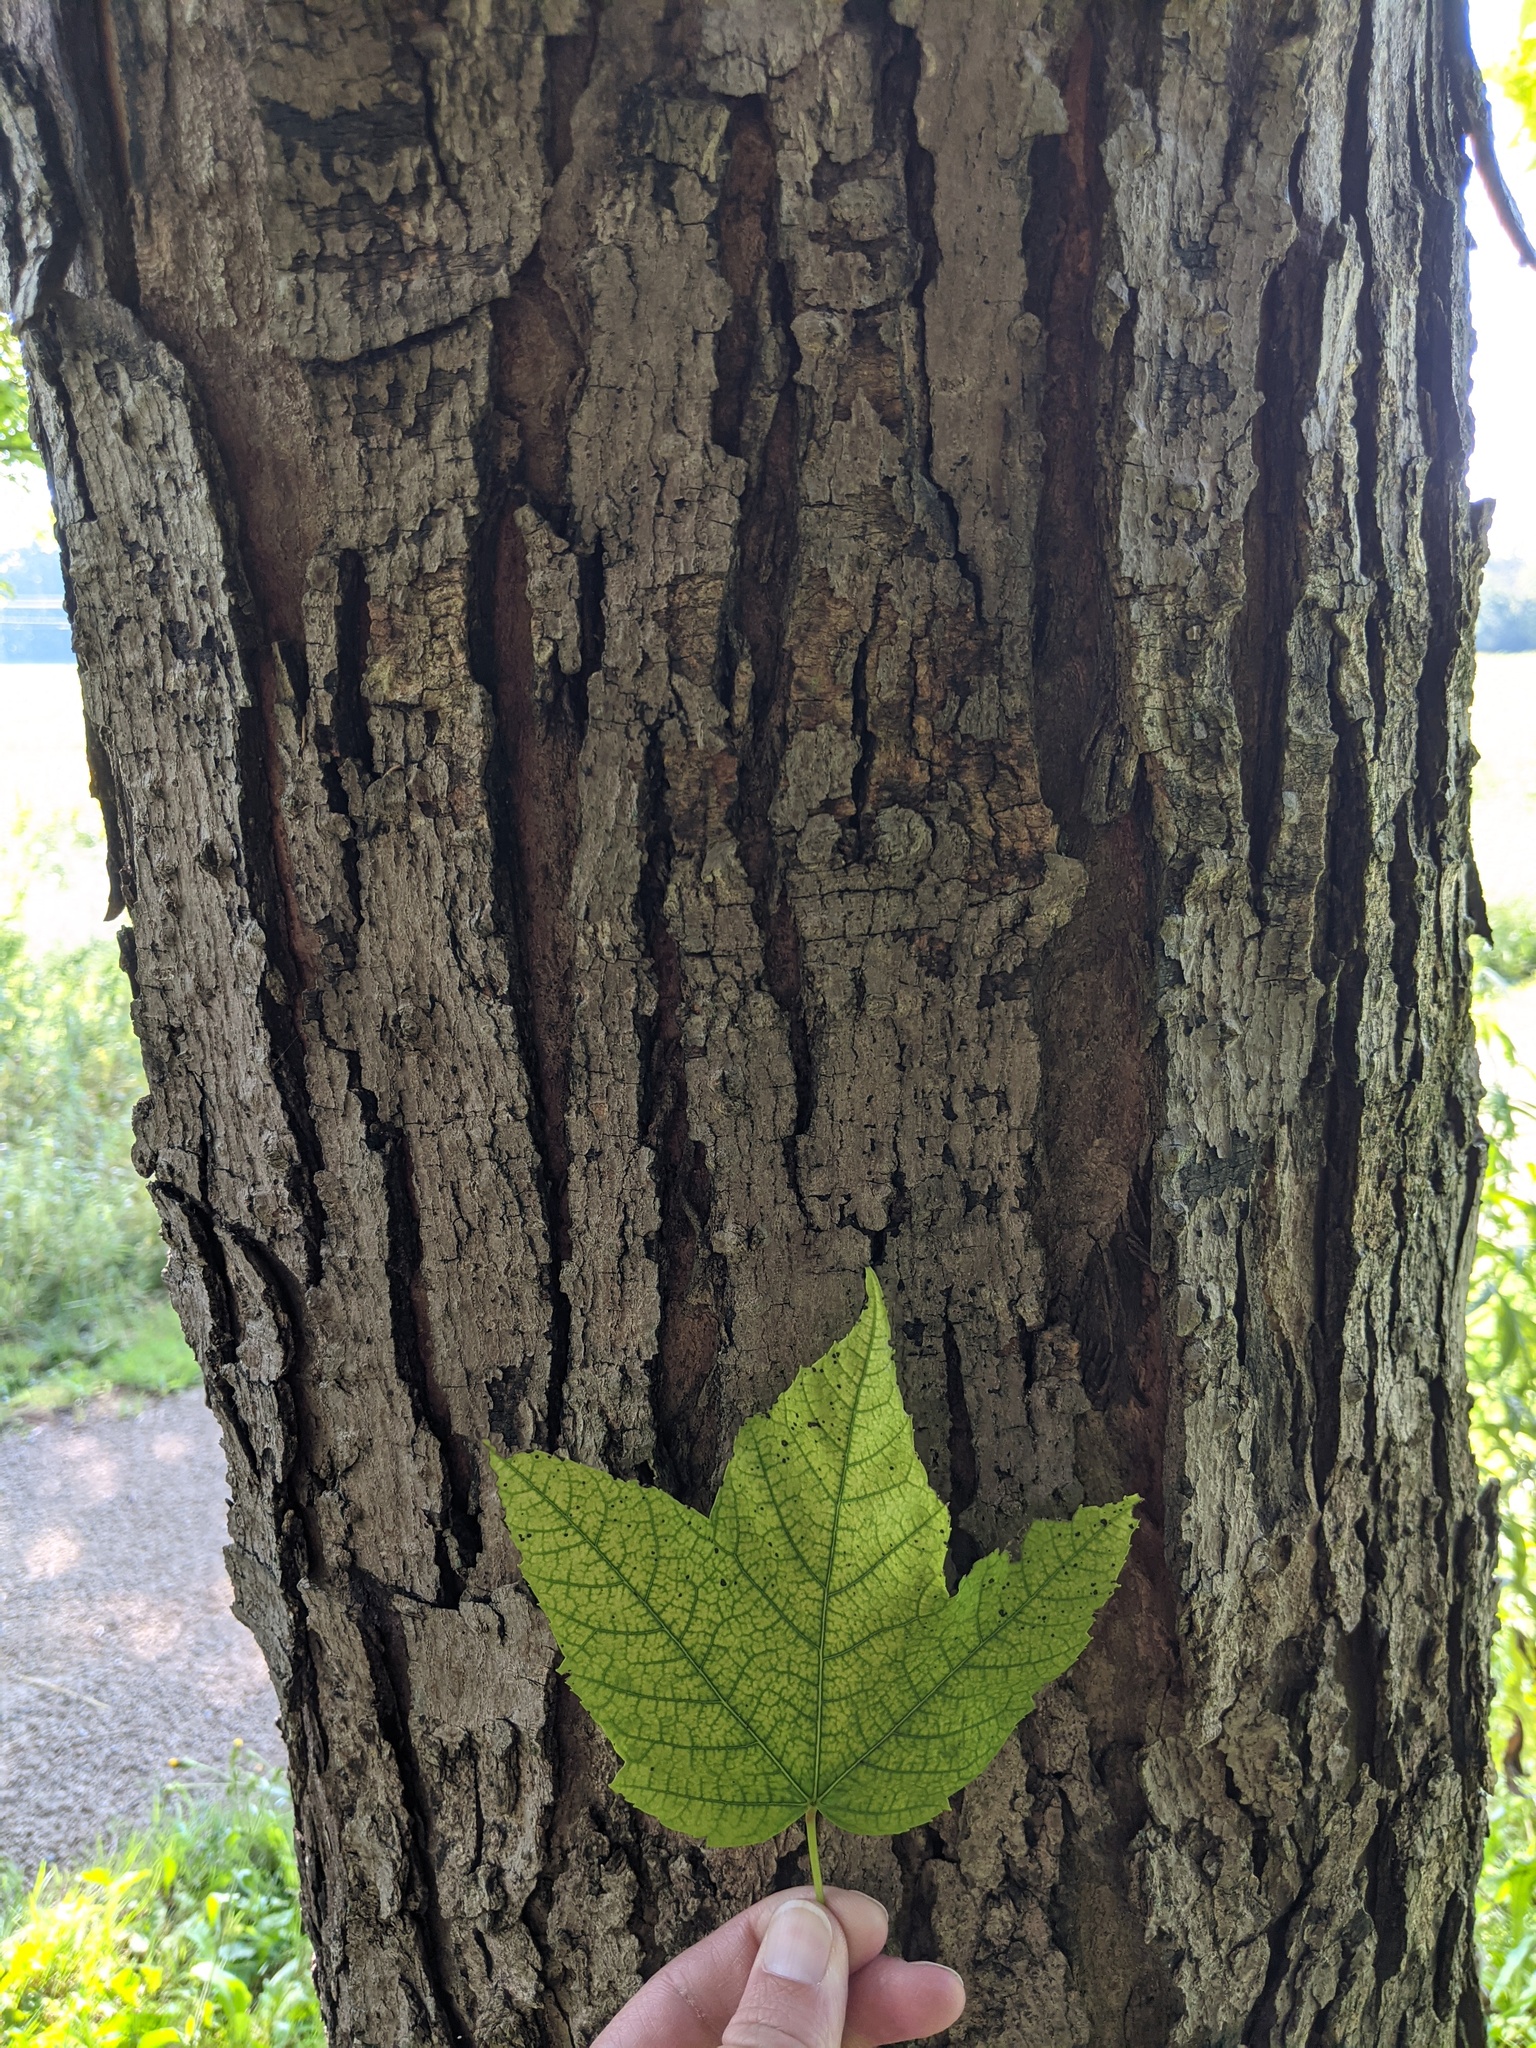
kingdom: Plantae
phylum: Tracheophyta
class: Magnoliopsida
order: Sapindales
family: Sapindaceae
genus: Acer
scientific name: Acer rubrum
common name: Red maple
